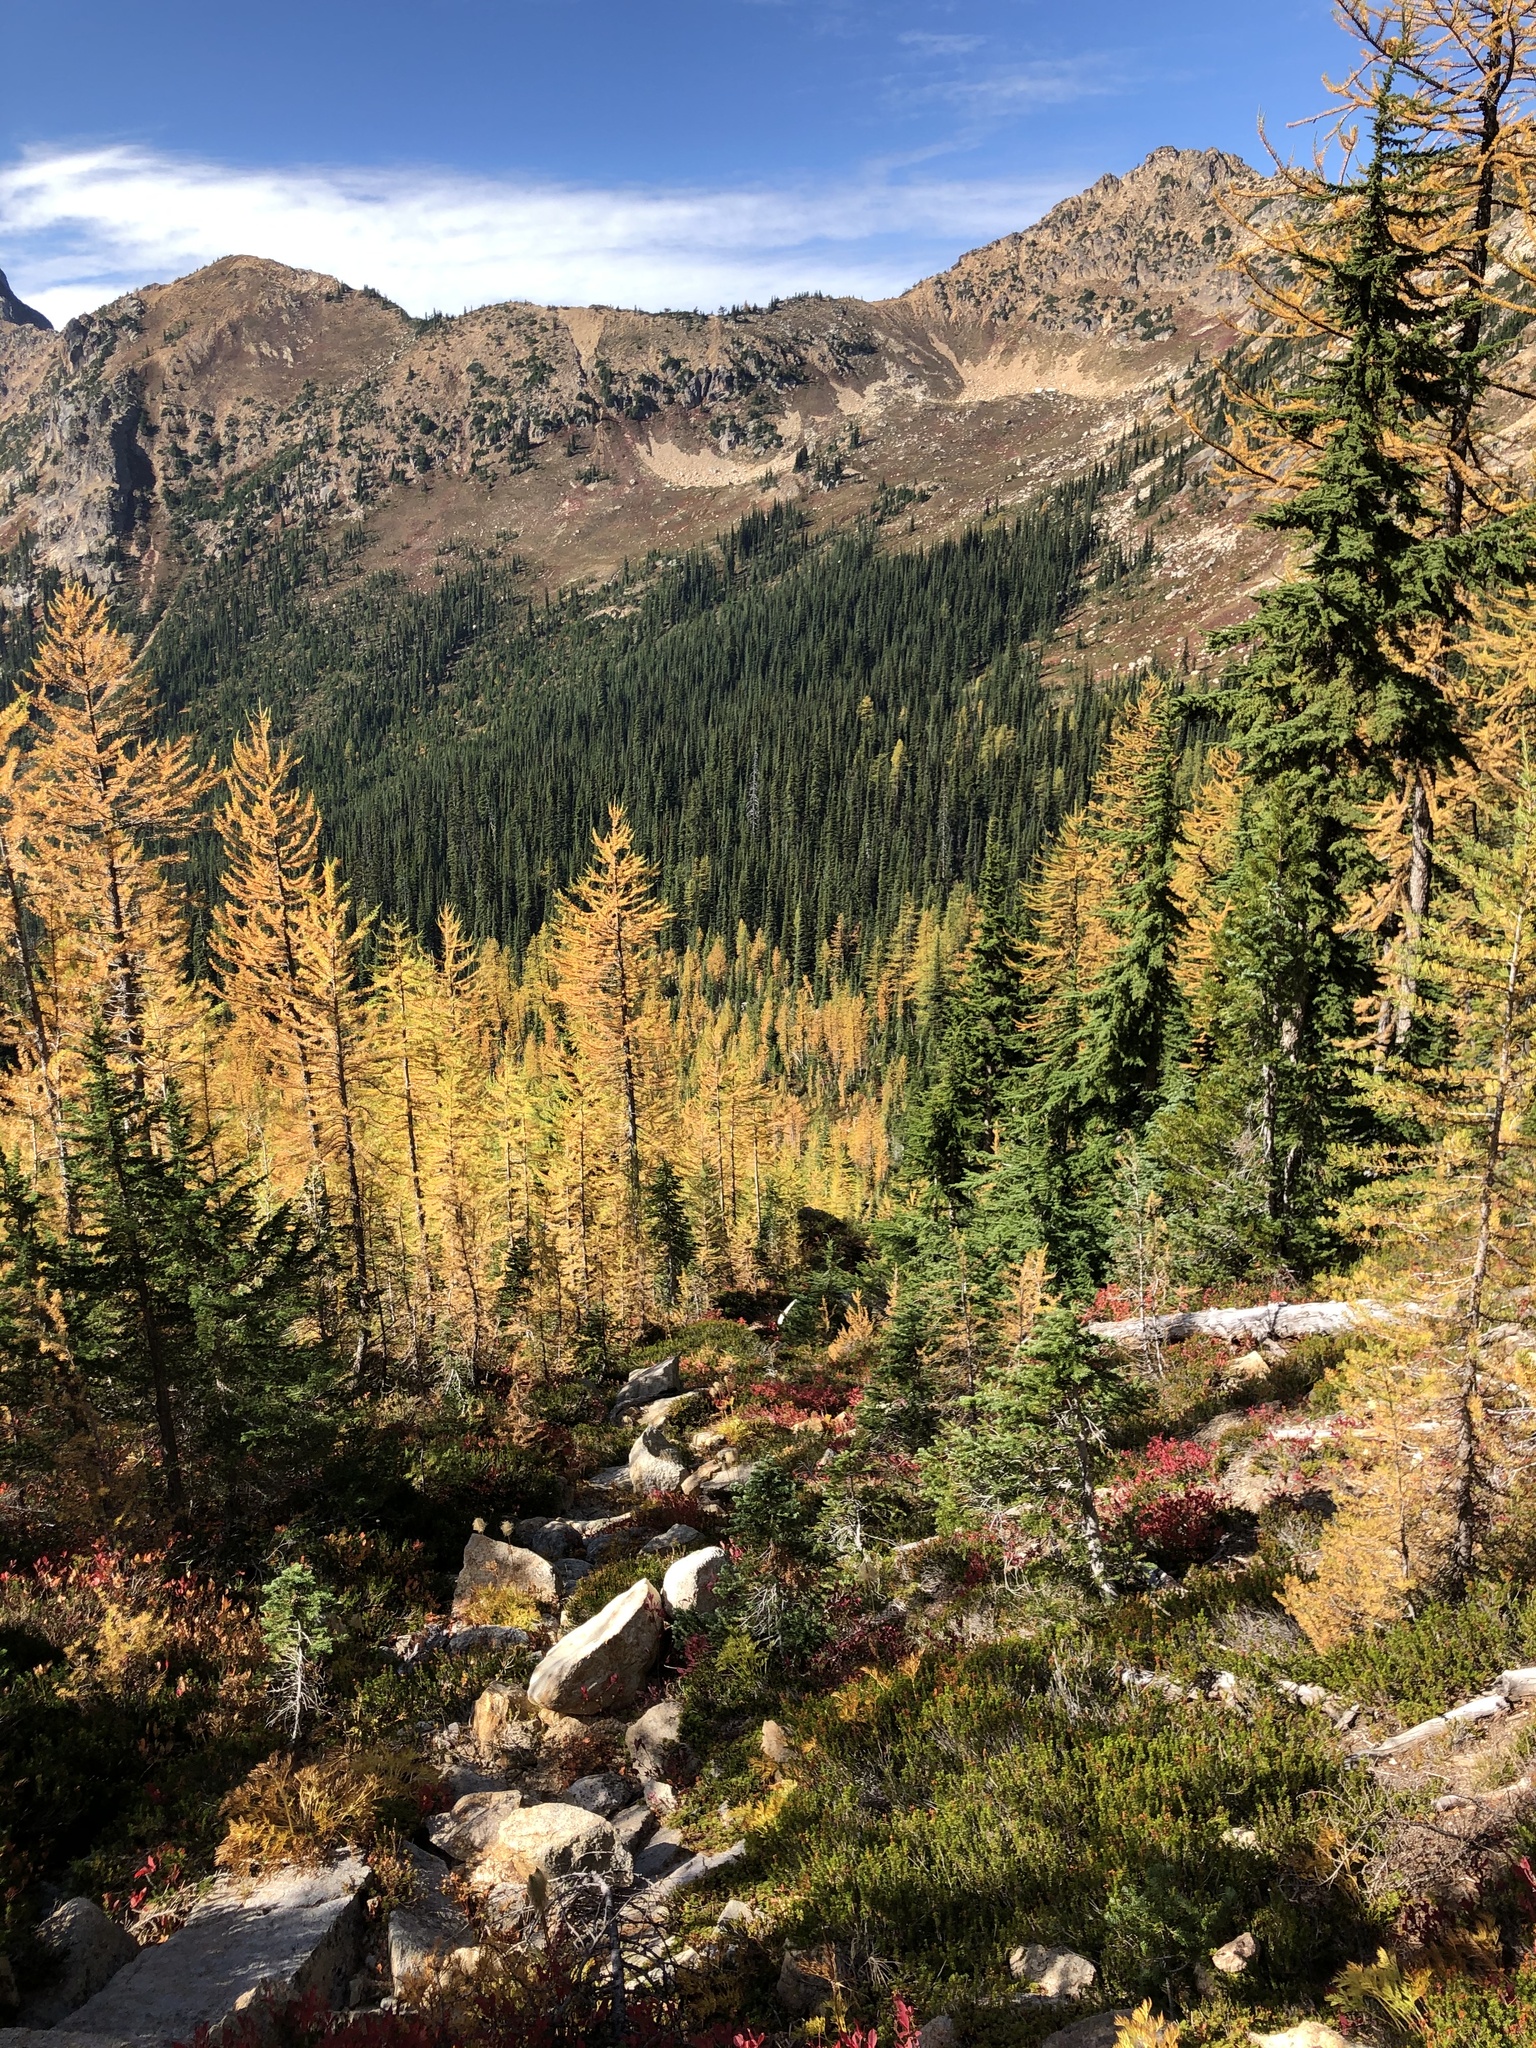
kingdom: Plantae
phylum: Tracheophyta
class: Pinopsida
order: Pinales
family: Pinaceae
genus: Larix
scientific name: Larix lyallii
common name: Alpine larch
